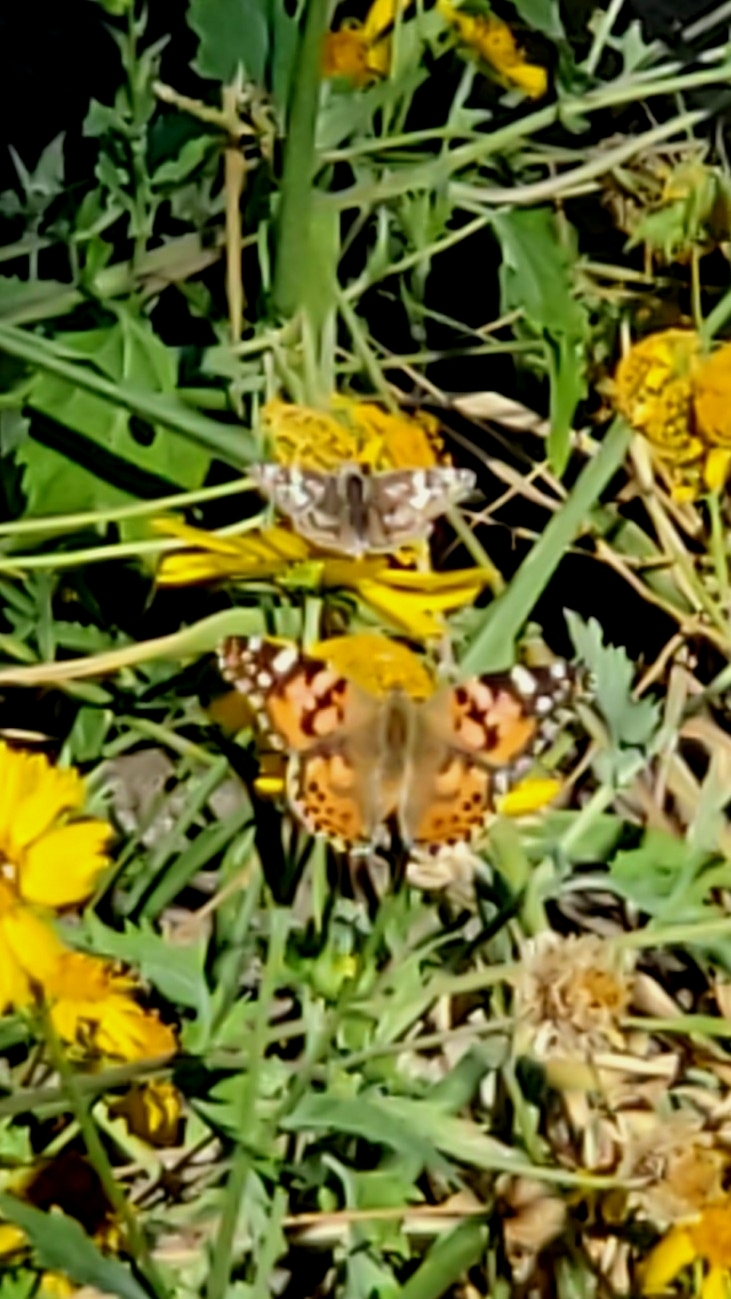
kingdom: Animalia
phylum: Arthropoda
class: Insecta
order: Lepidoptera
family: Nymphalidae
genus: Vanessa
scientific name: Vanessa cardui
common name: Painted lady
